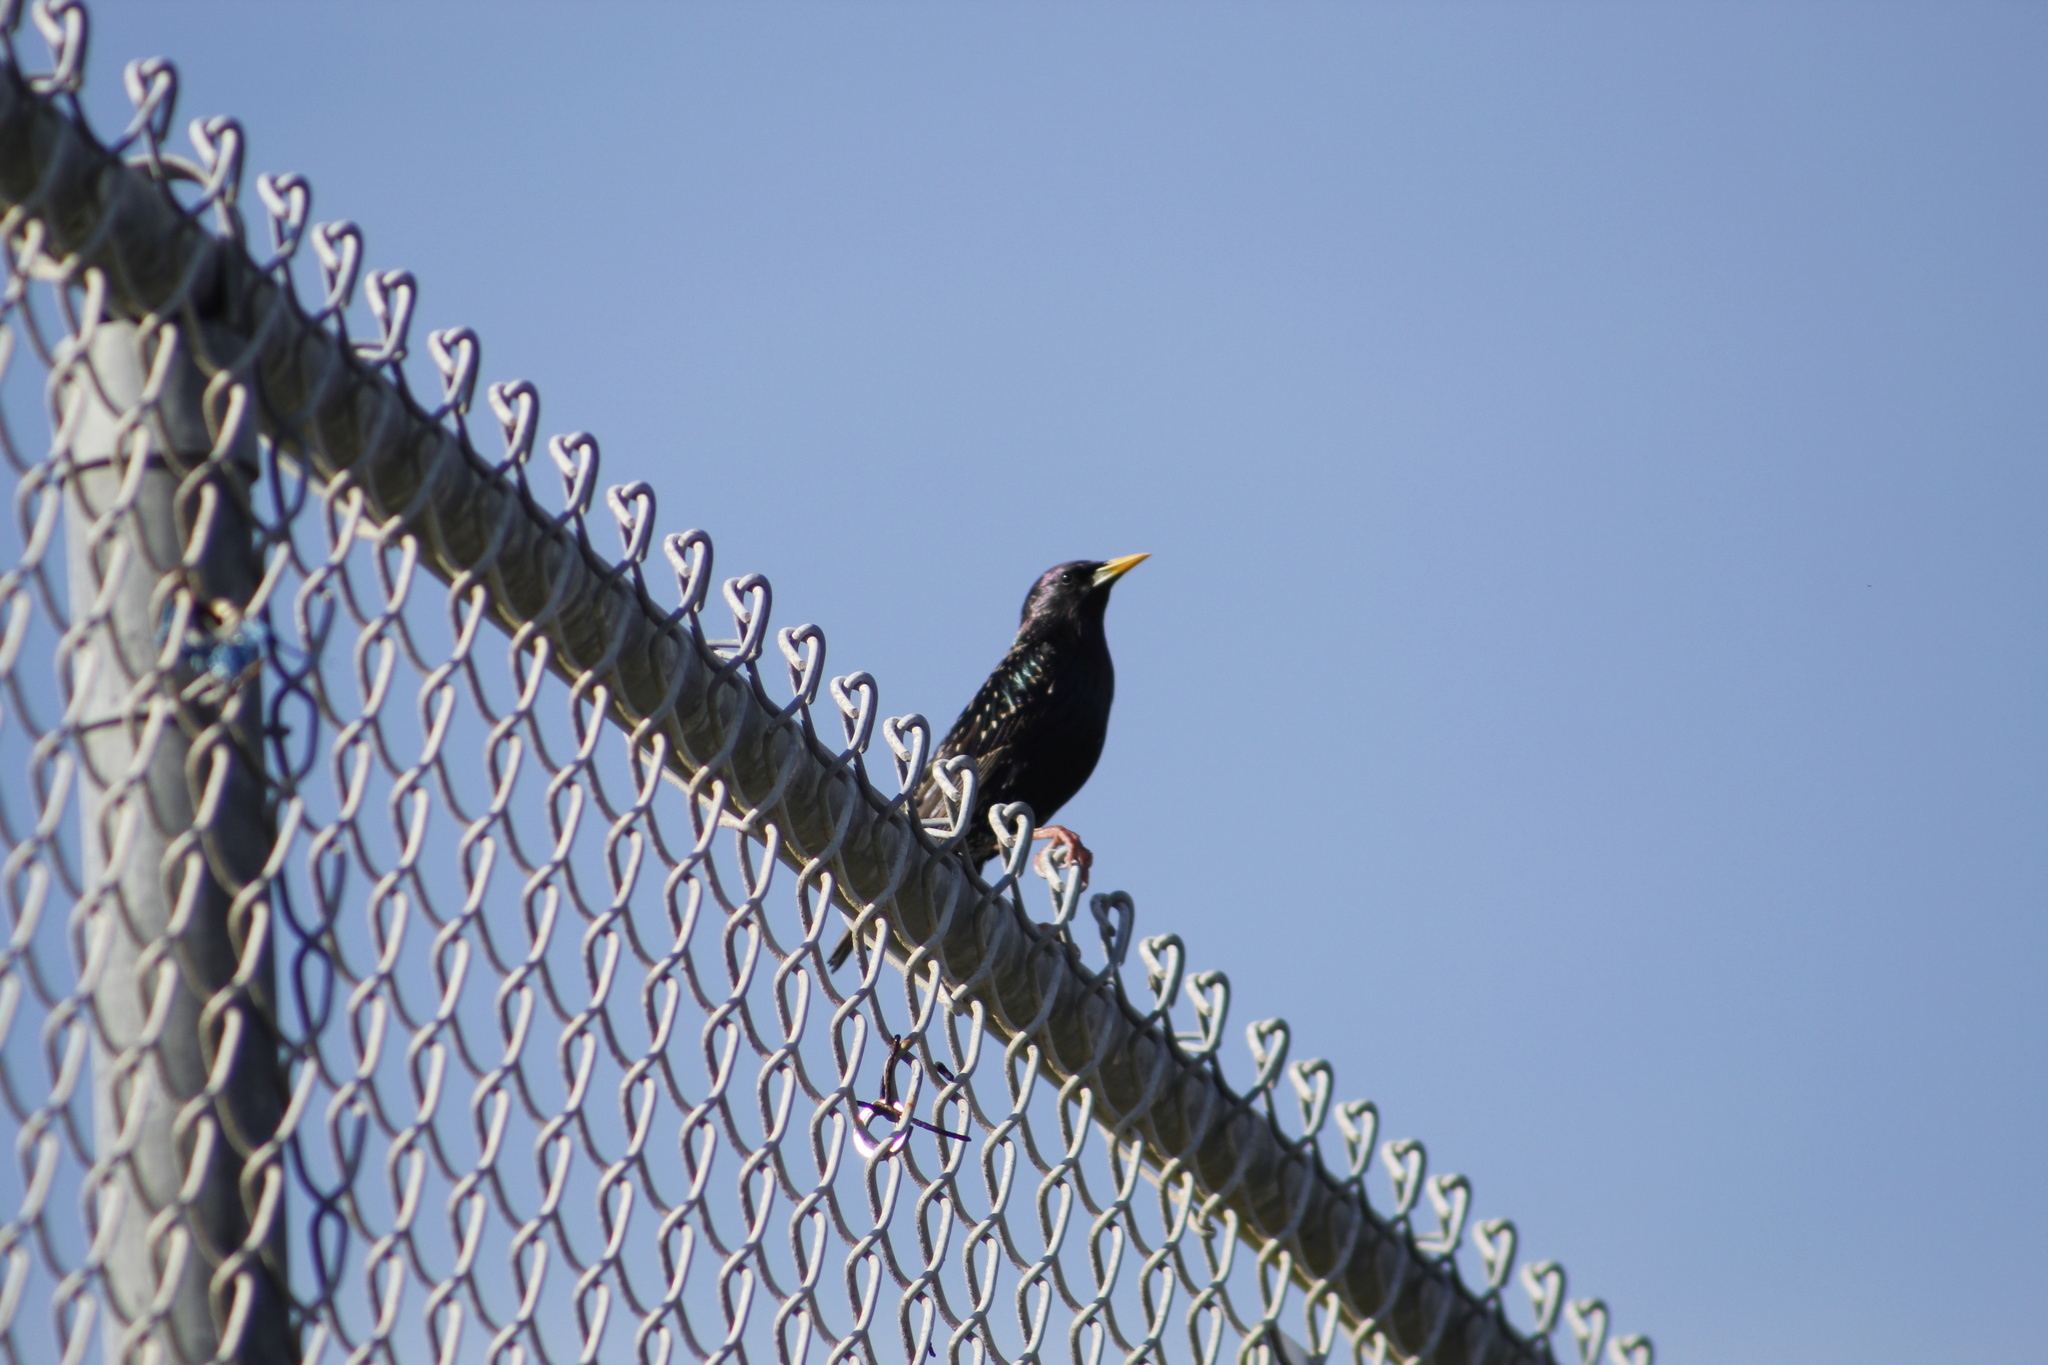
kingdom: Animalia
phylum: Chordata
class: Aves
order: Passeriformes
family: Sturnidae
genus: Sturnus
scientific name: Sturnus vulgaris
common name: Common starling
